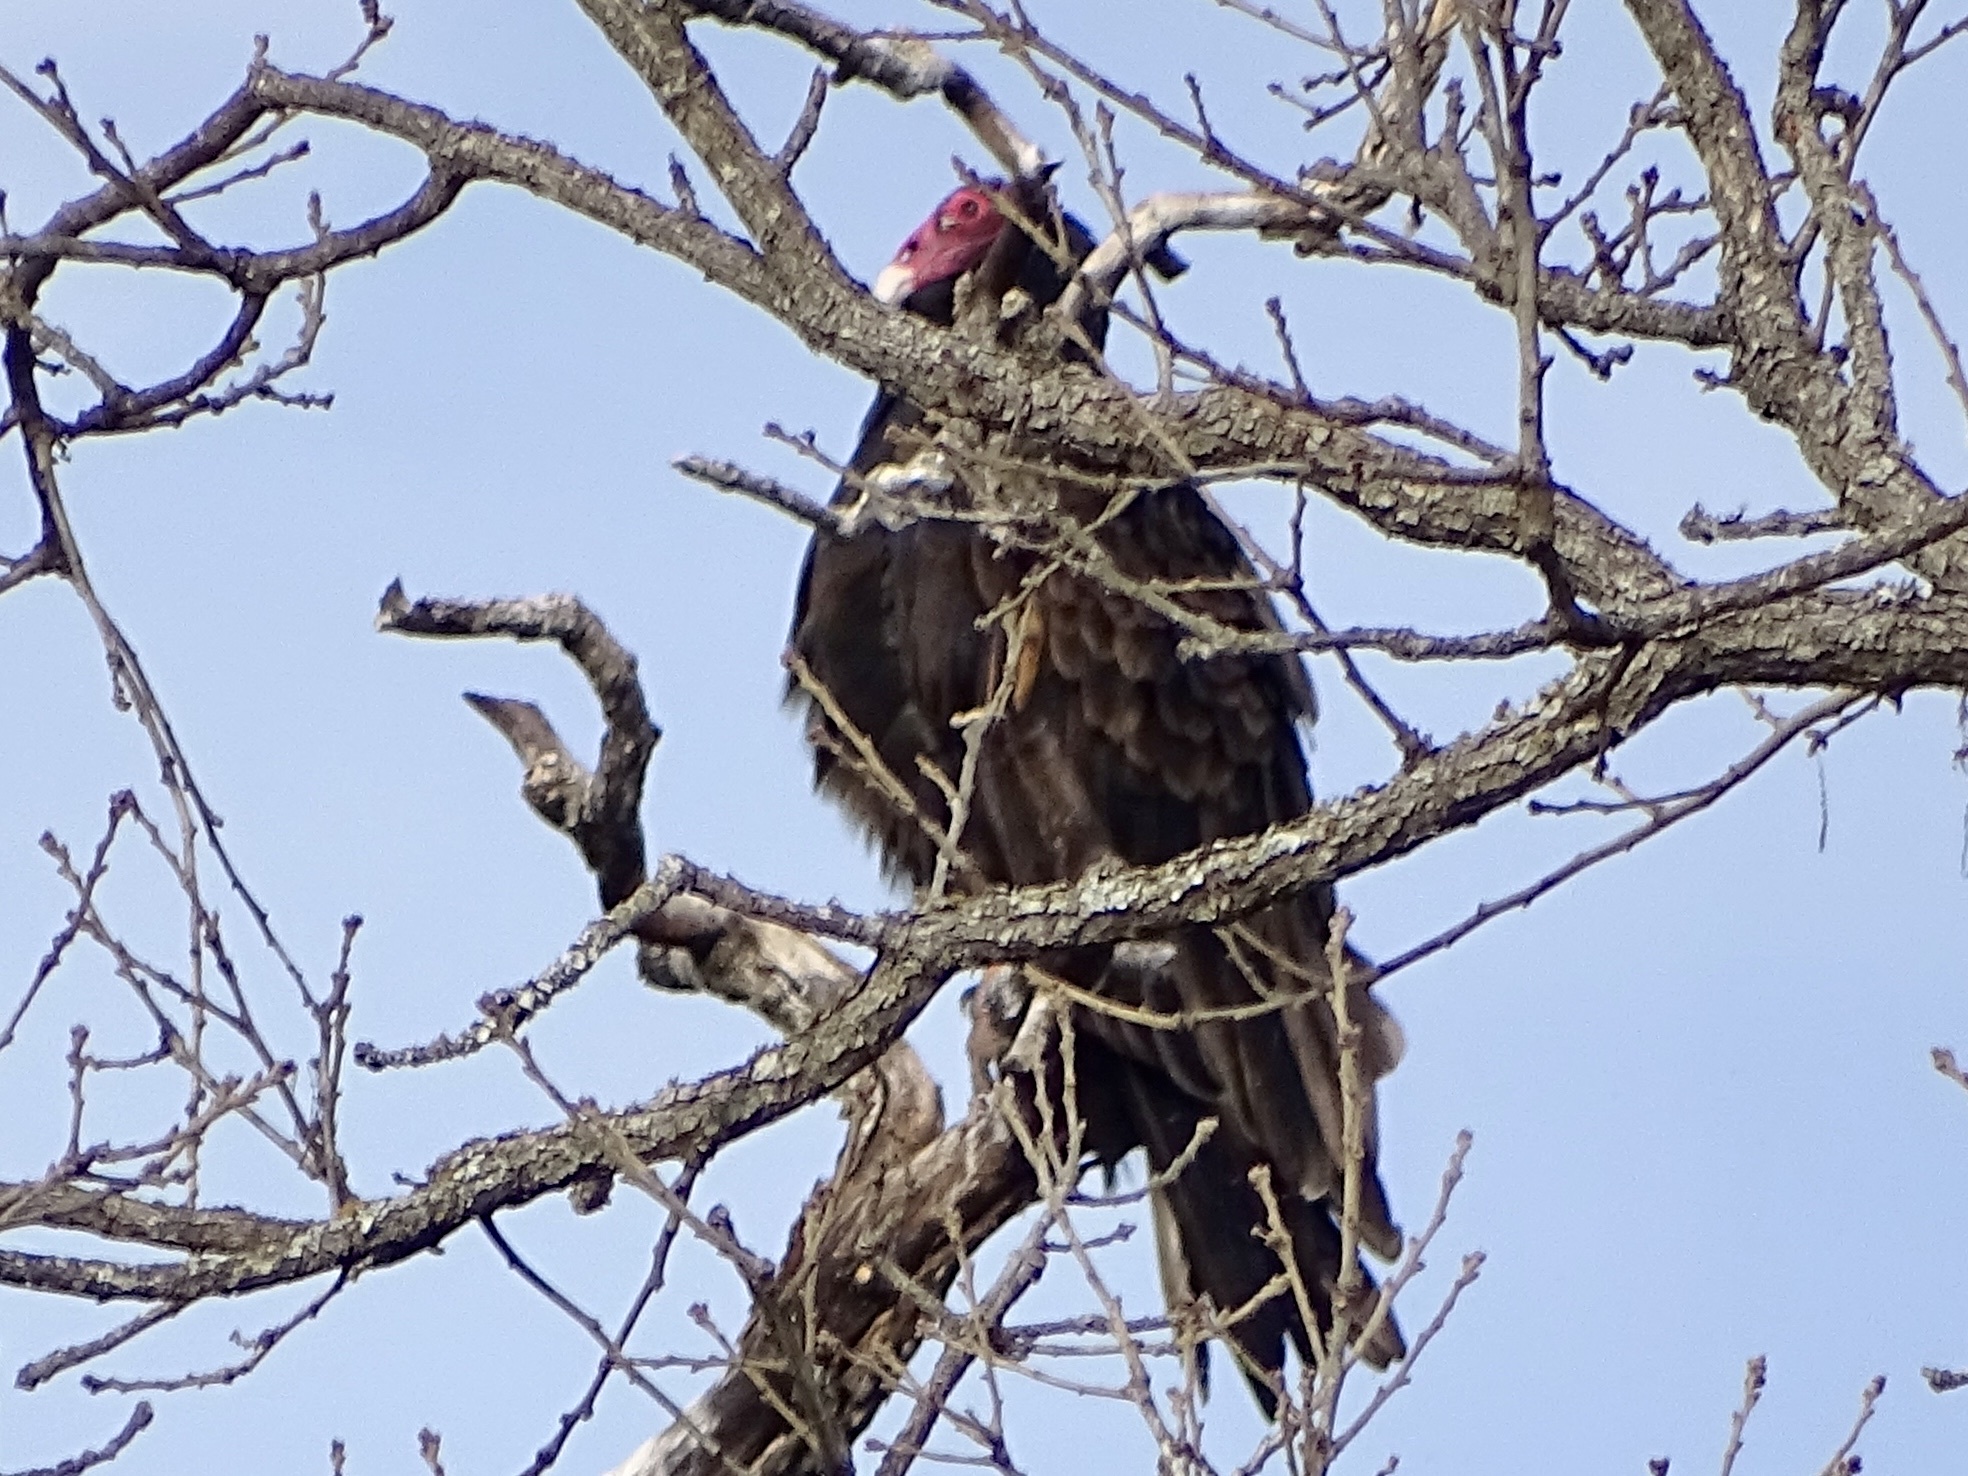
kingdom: Animalia
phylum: Chordata
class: Aves
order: Accipitriformes
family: Cathartidae
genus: Cathartes
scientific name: Cathartes aura
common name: Turkey vulture
